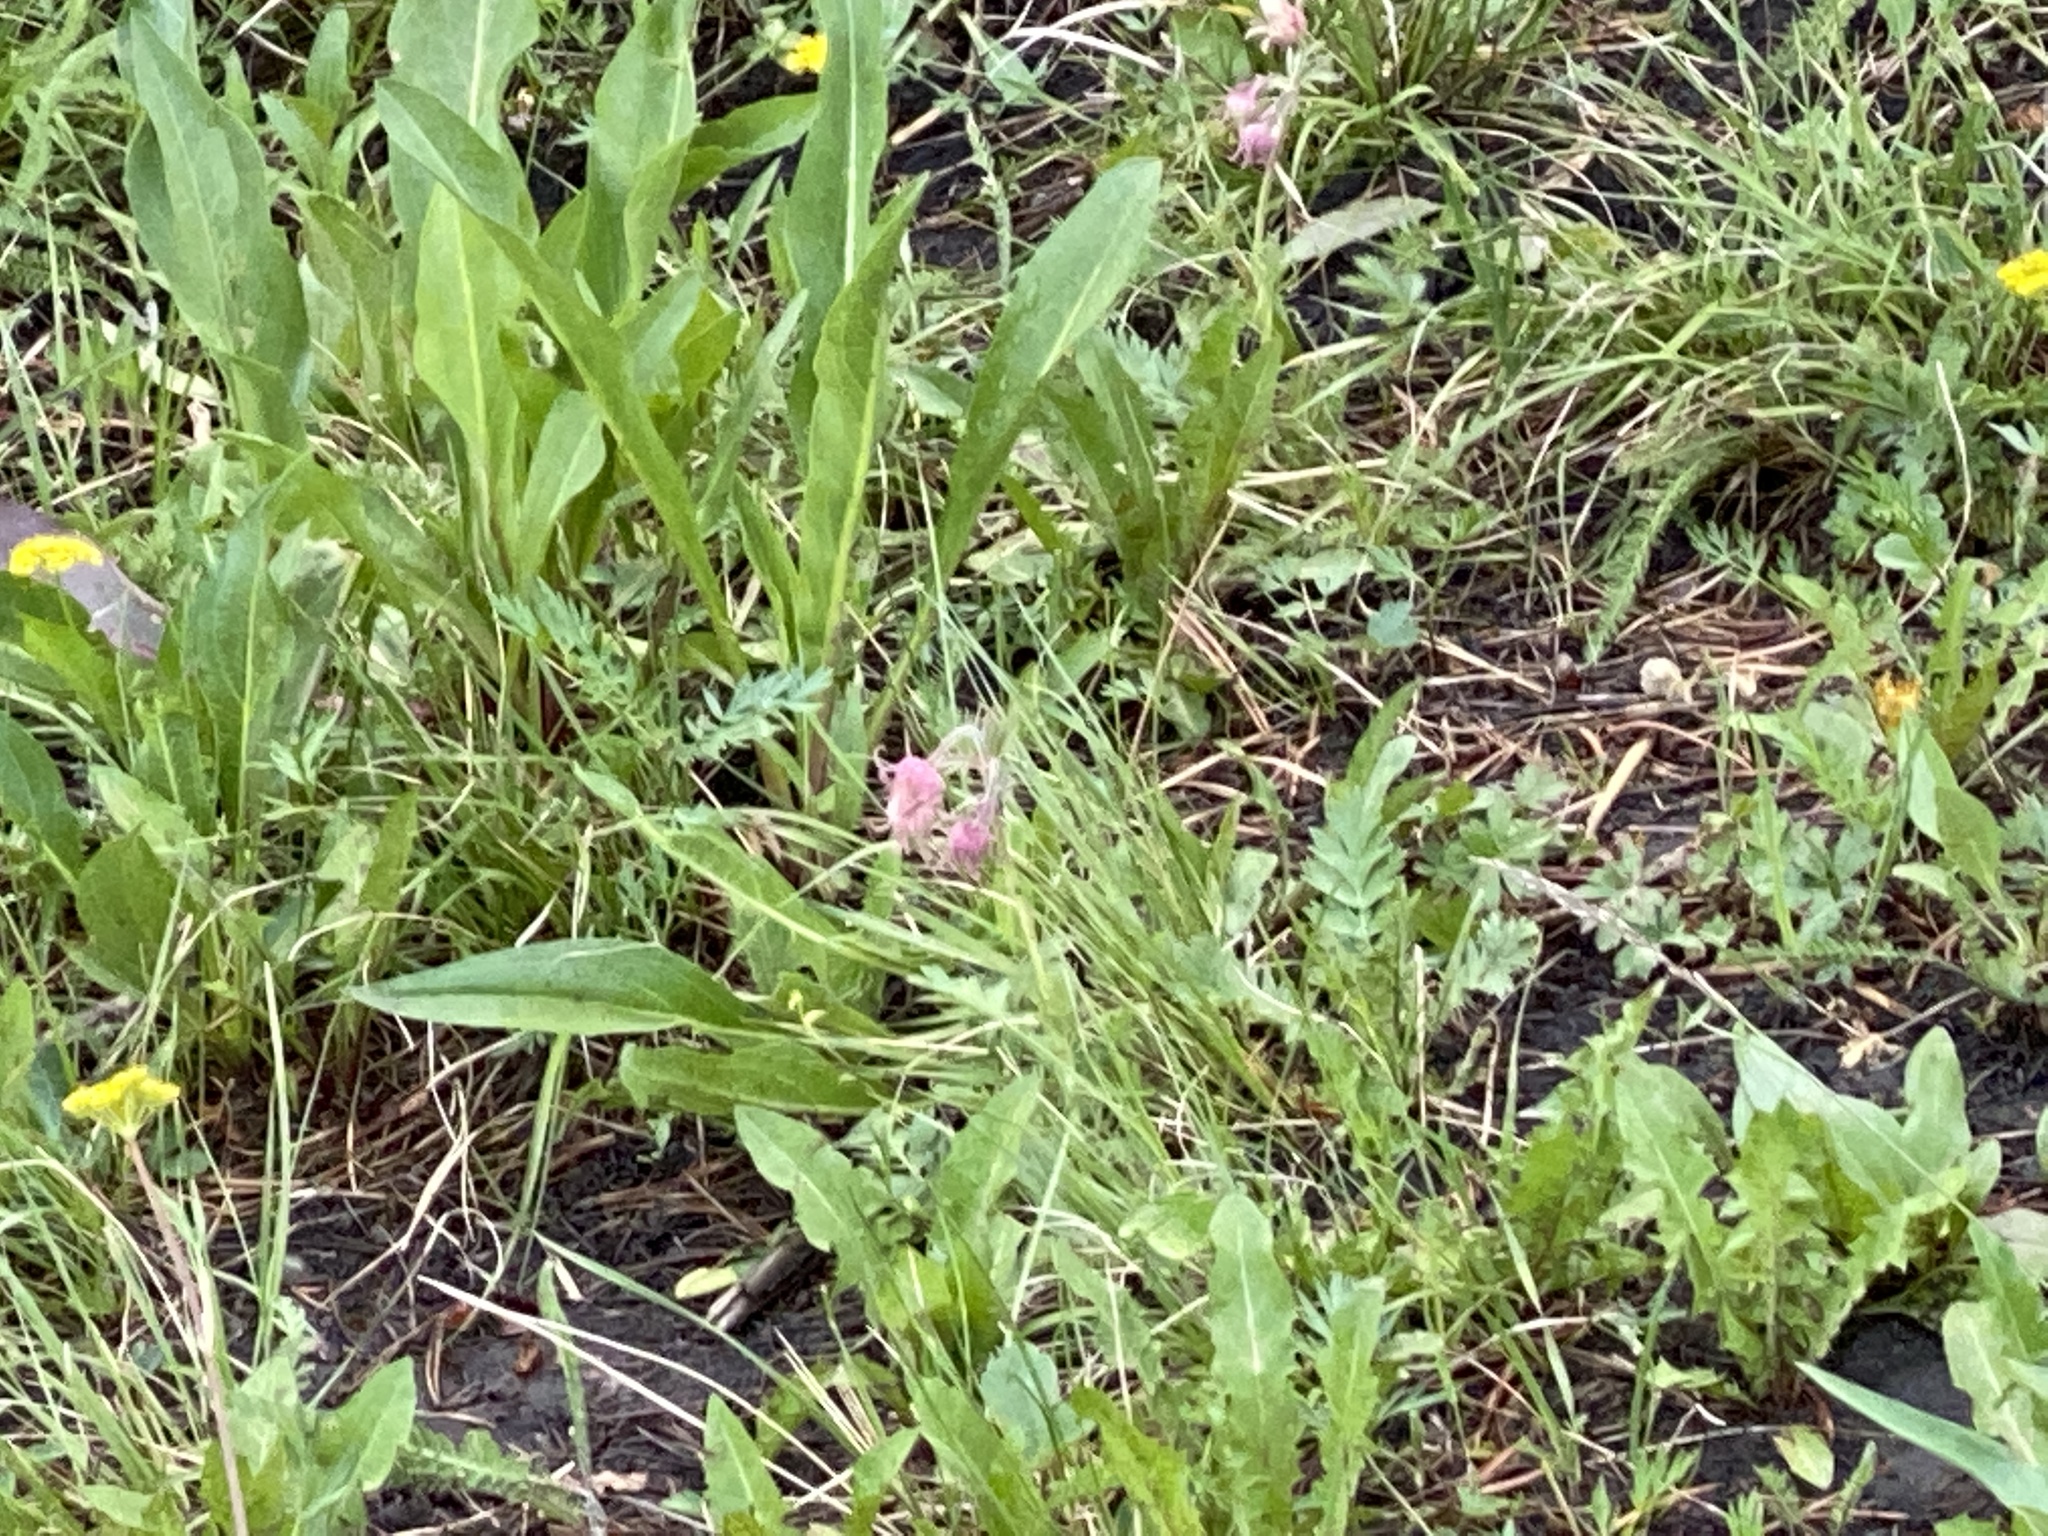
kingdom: Plantae
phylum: Tracheophyta
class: Magnoliopsida
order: Rosales
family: Rosaceae
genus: Geum
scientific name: Geum triflorum
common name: Old man's whiskers
